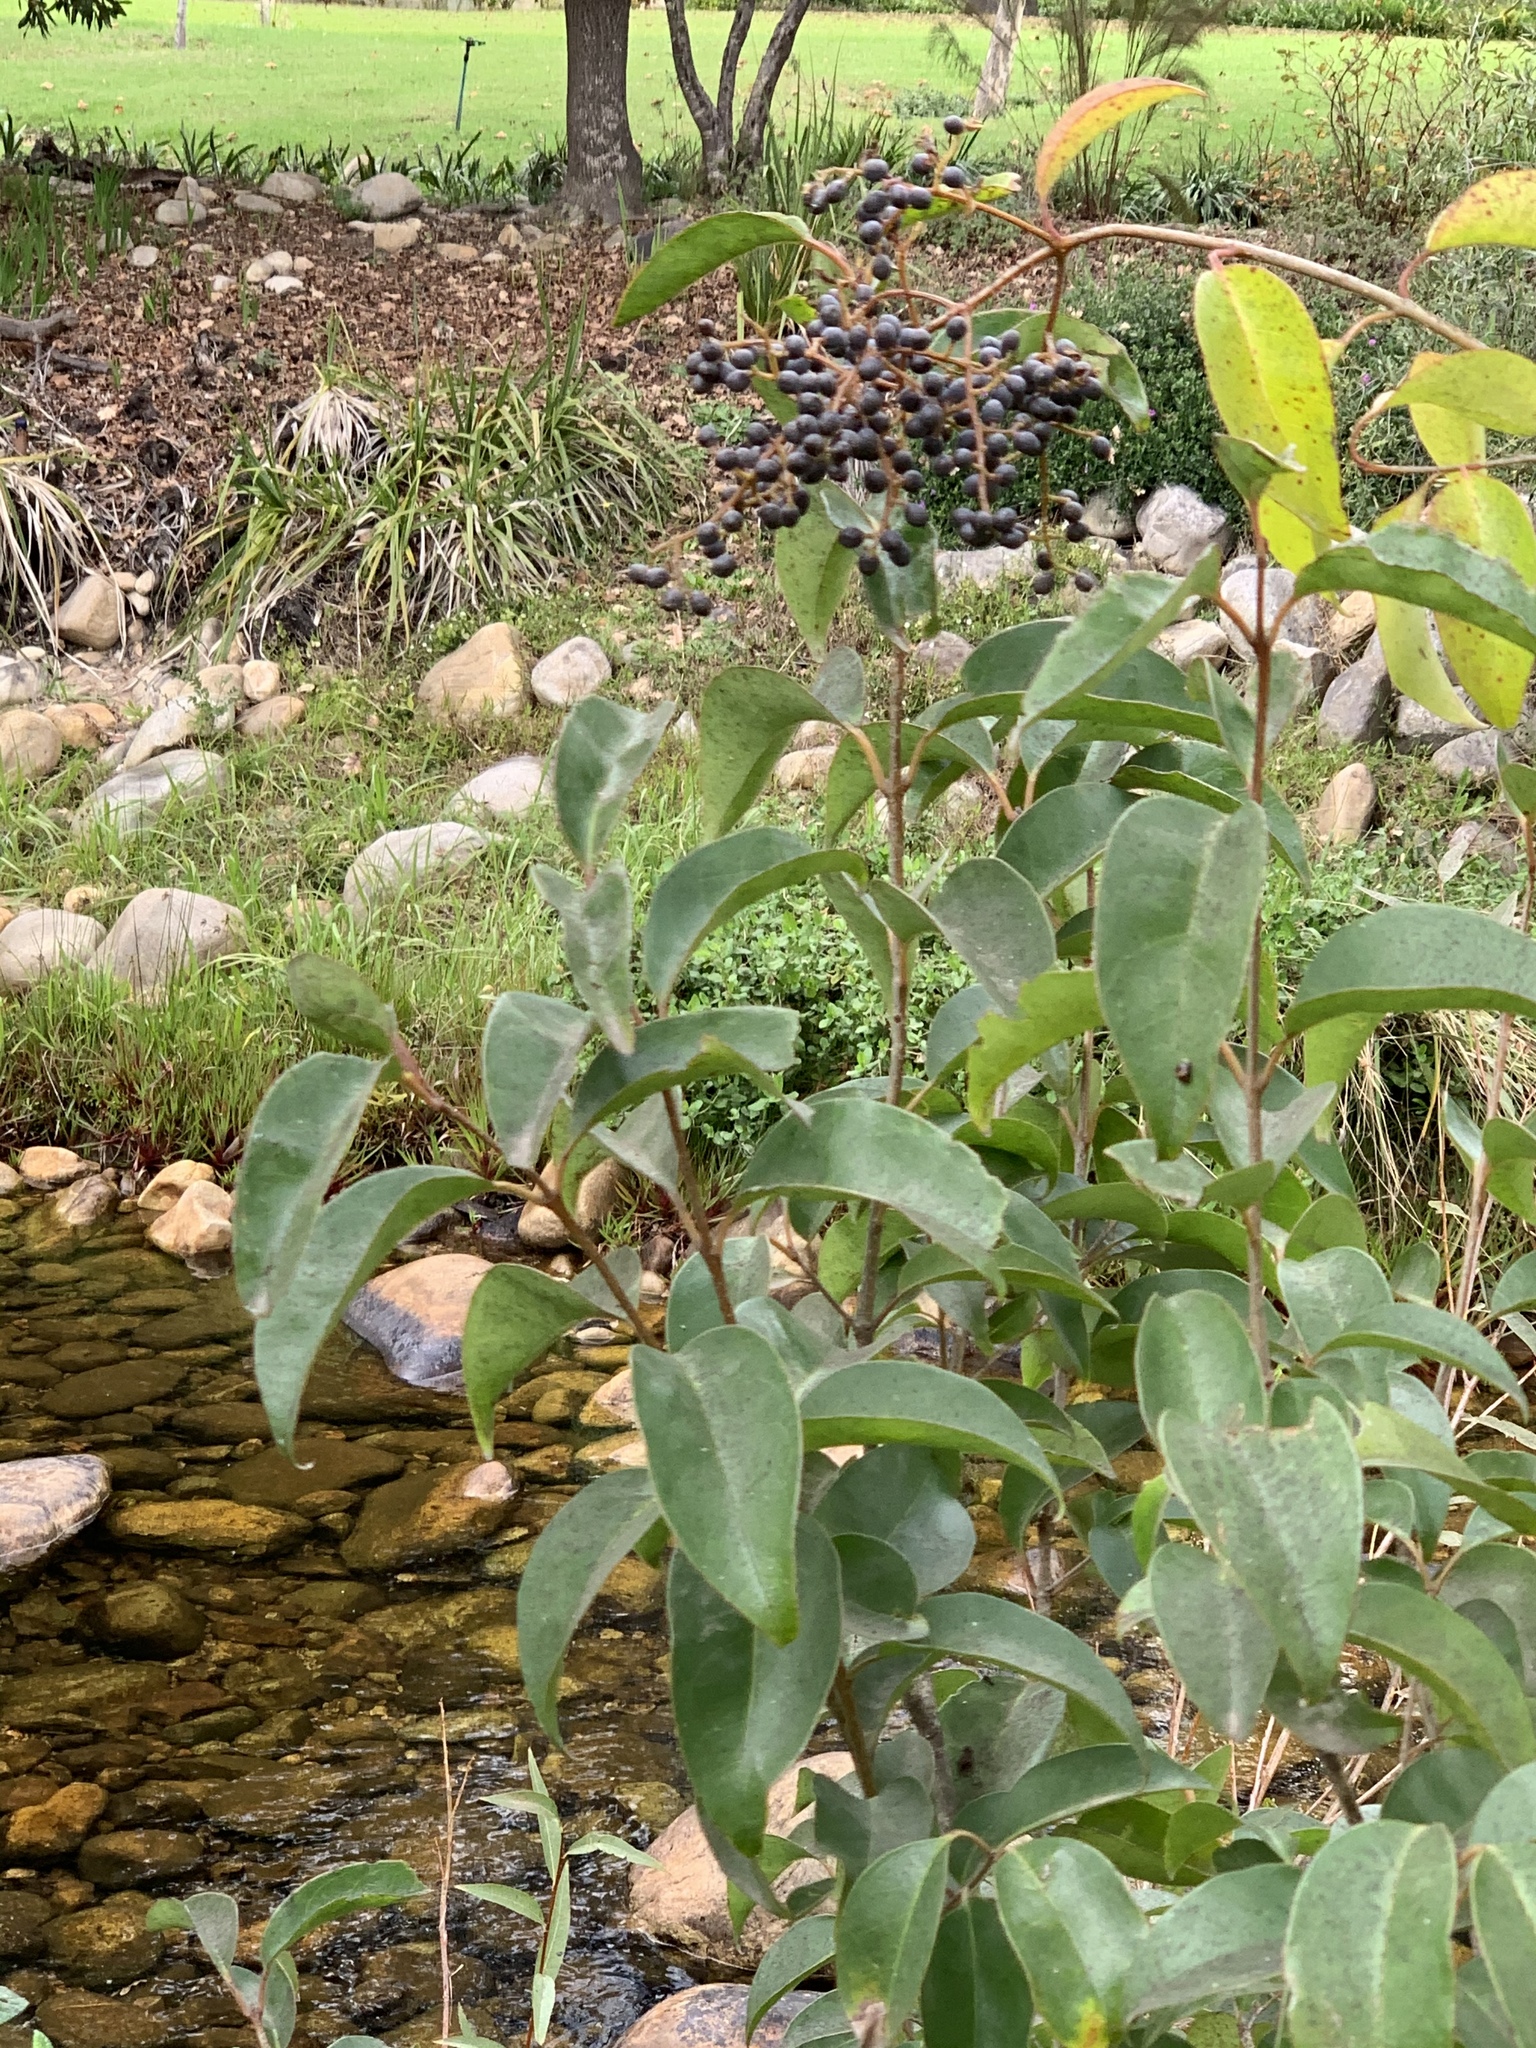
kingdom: Plantae
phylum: Tracheophyta
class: Magnoliopsida
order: Lamiales
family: Oleaceae
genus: Ligustrum
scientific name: Ligustrum lucidum
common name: Glossy privet
